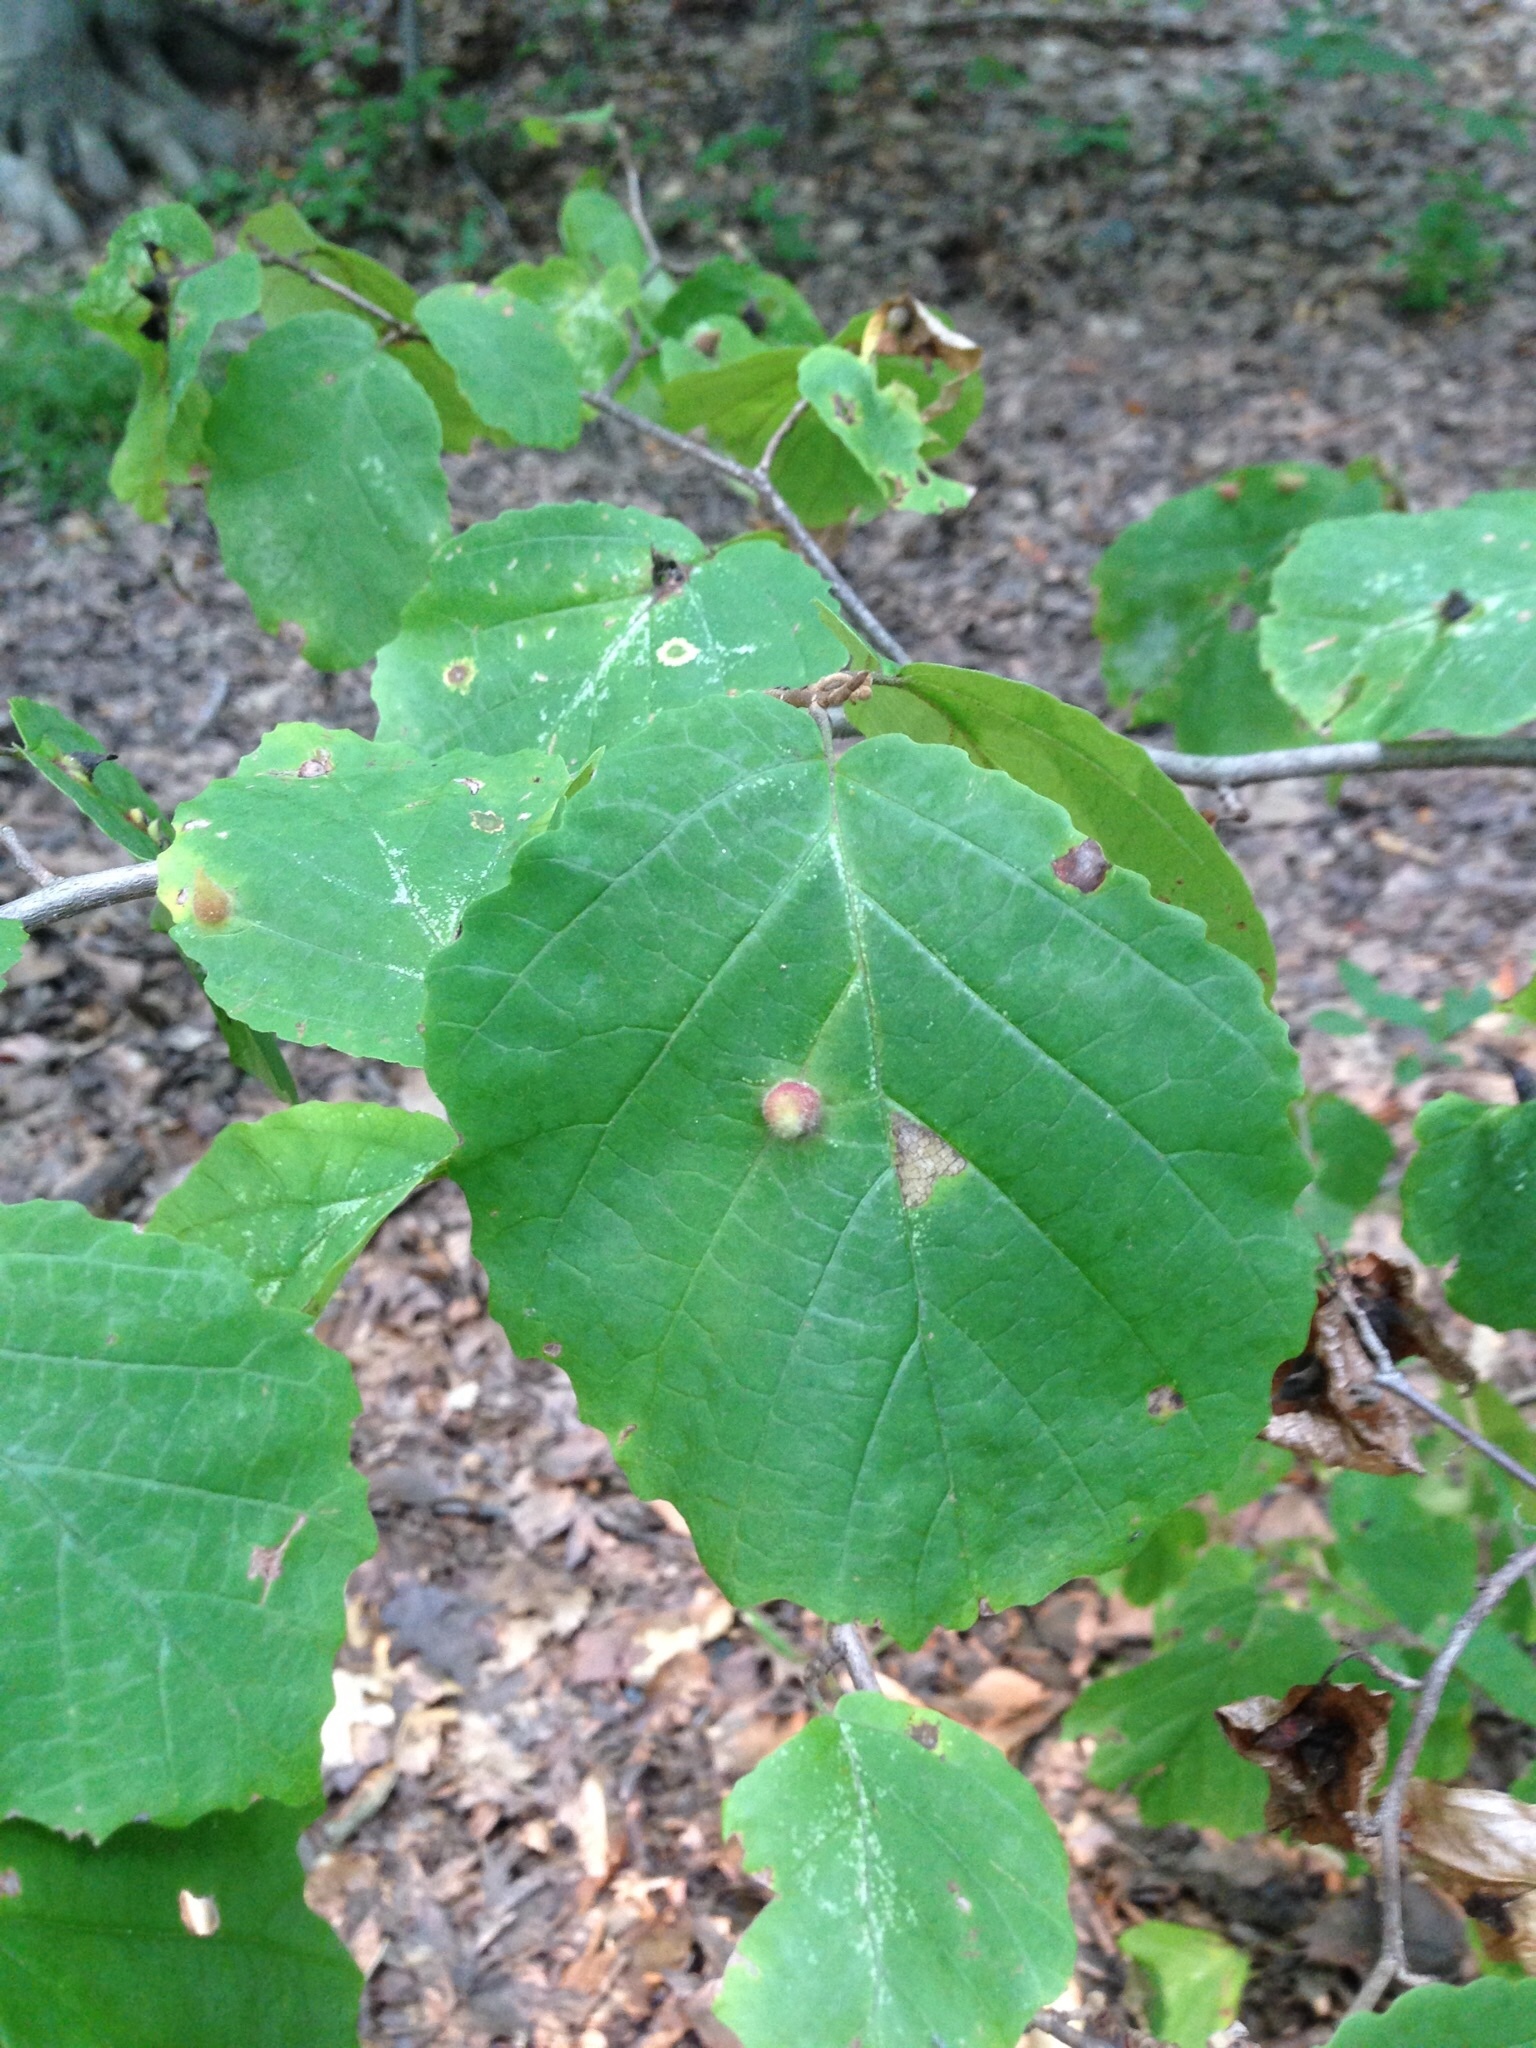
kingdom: Plantae
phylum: Tracheophyta
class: Magnoliopsida
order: Saxifragales
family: Hamamelidaceae
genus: Hamamelis
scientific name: Hamamelis virginiana
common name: Witch-hazel
